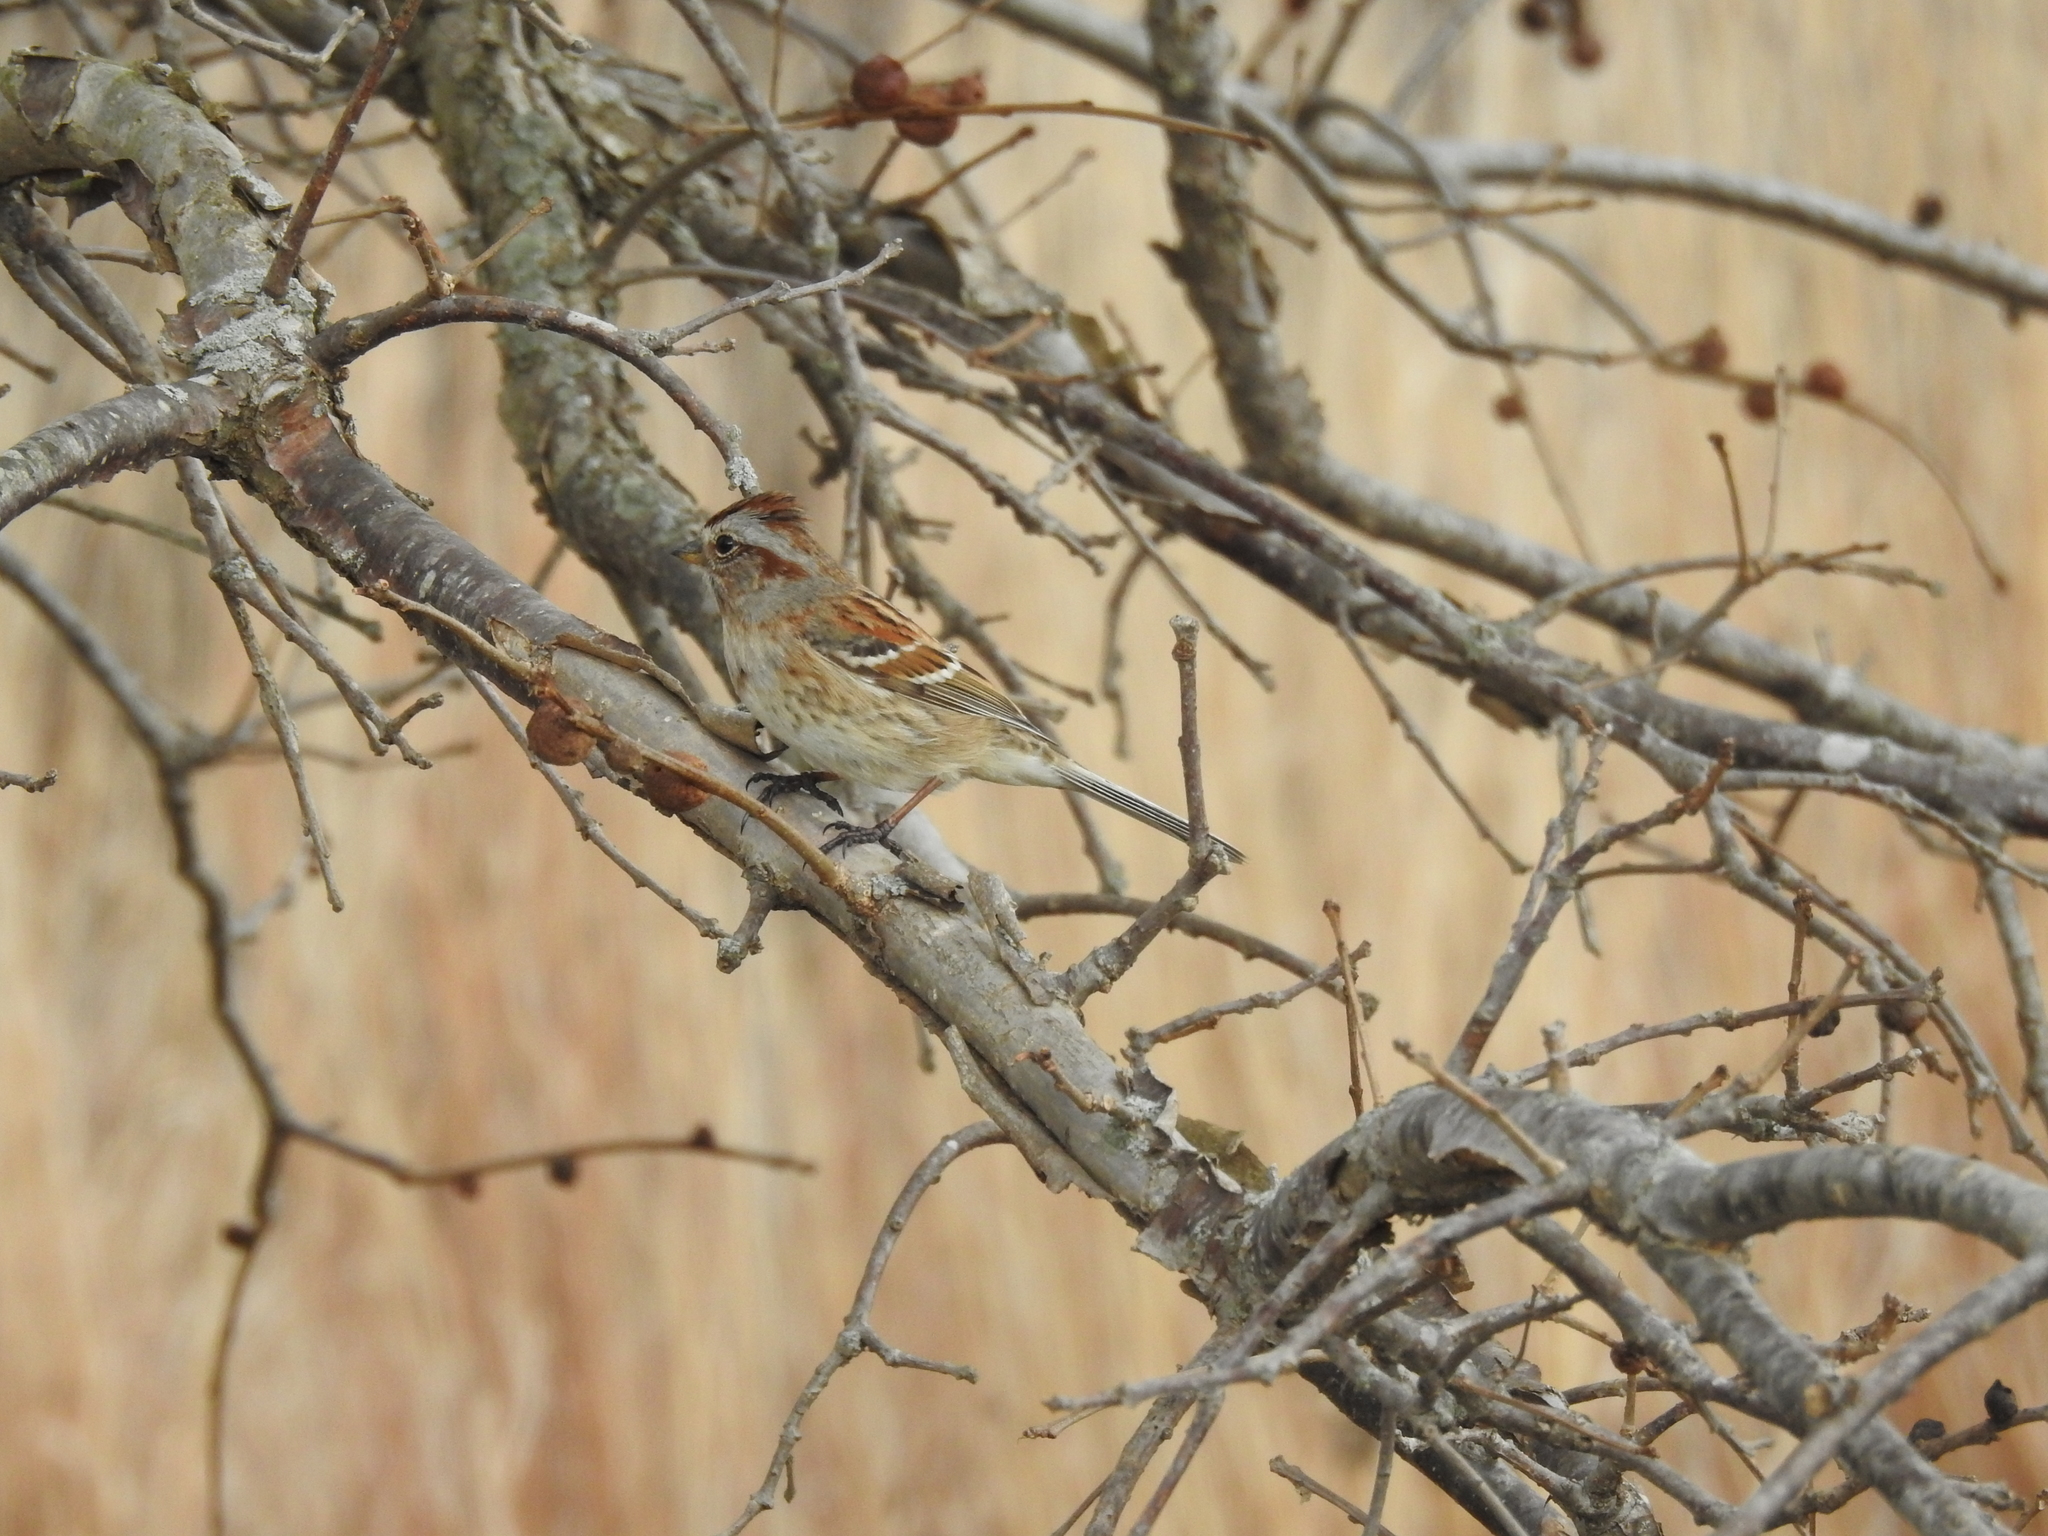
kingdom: Animalia
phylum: Chordata
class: Aves
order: Passeriformes
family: Passerellidae
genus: Spizelloides
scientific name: Spizelloides arborea
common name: American tree sparrow
